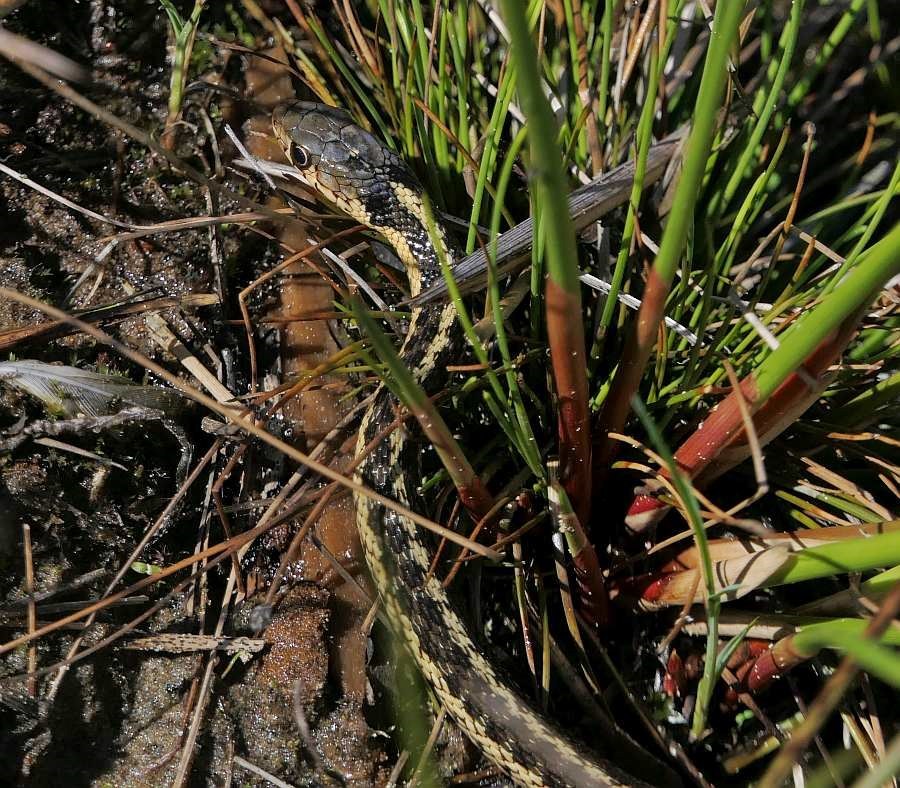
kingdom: Animalia
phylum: Chordata
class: Squamata
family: Colubridae
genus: Thamnophis
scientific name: Thamnophis sirtalis
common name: Common garter snake
